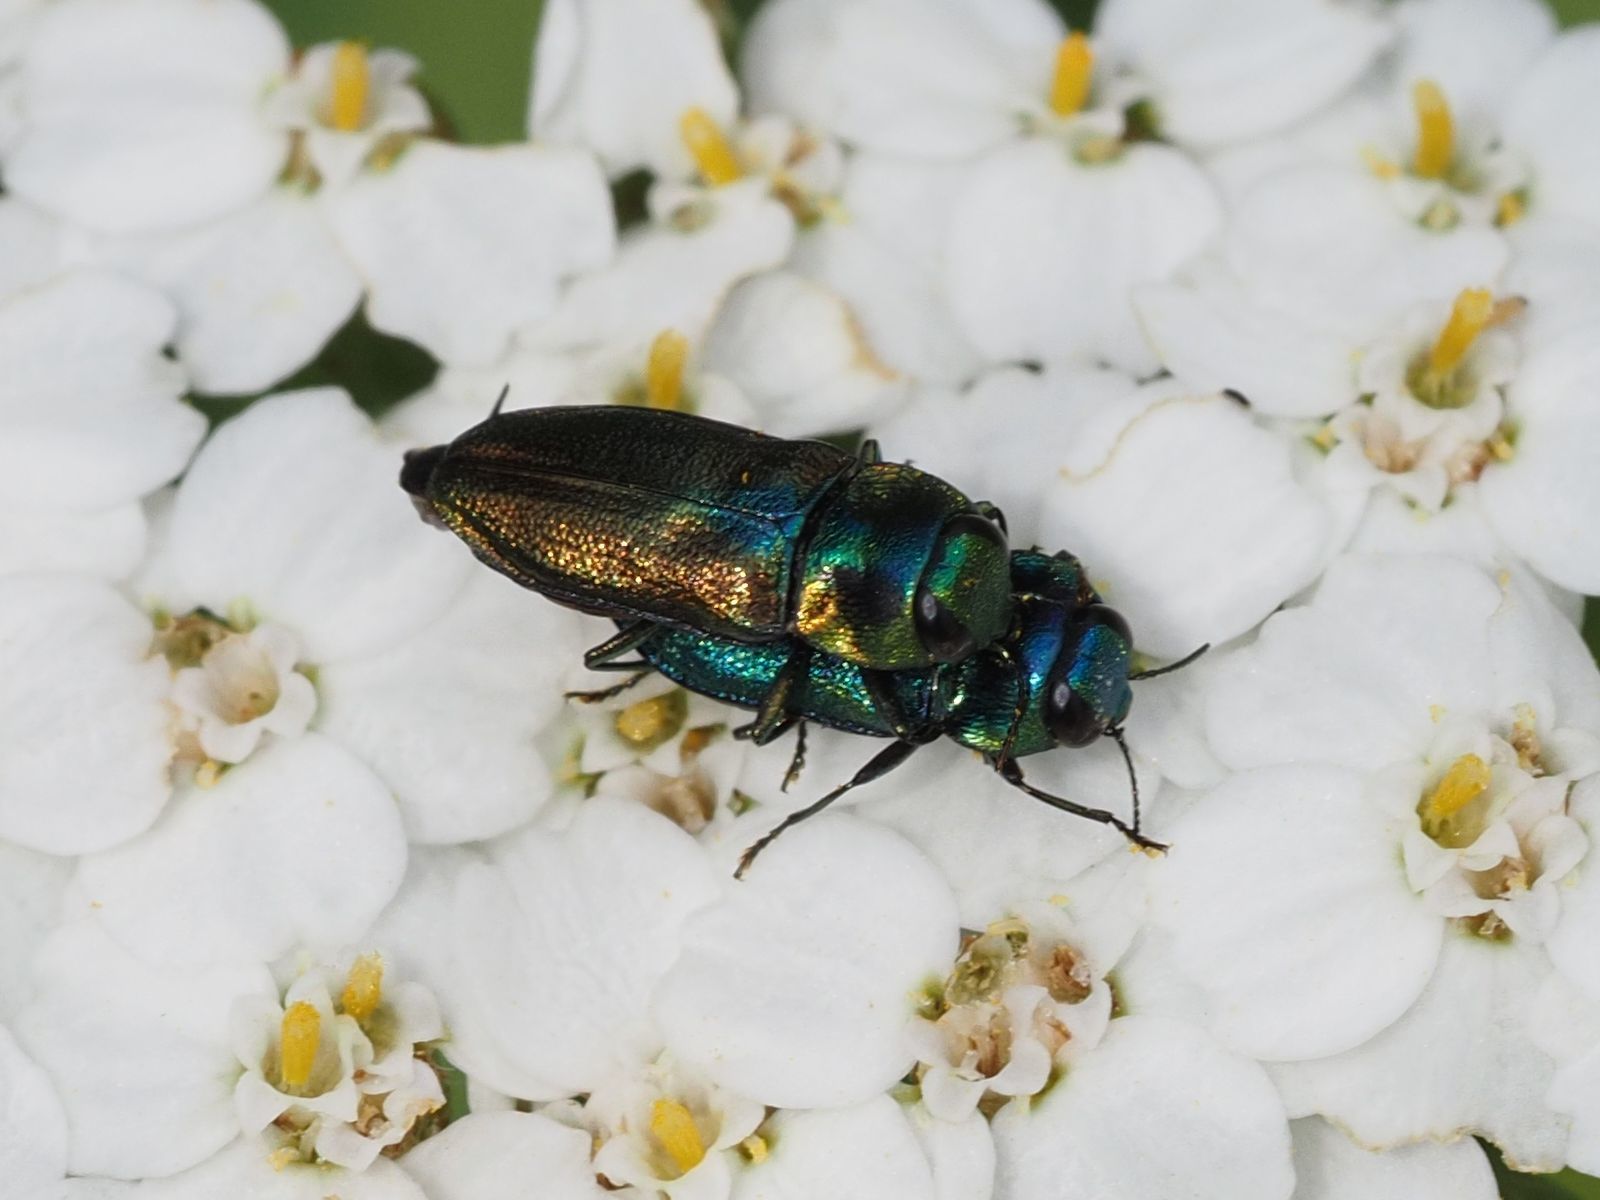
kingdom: Animalia
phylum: Arthropoda
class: Insecta
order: Coleoptera
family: Buprestidae
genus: Anthaxia
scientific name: Anthaxia podolica
